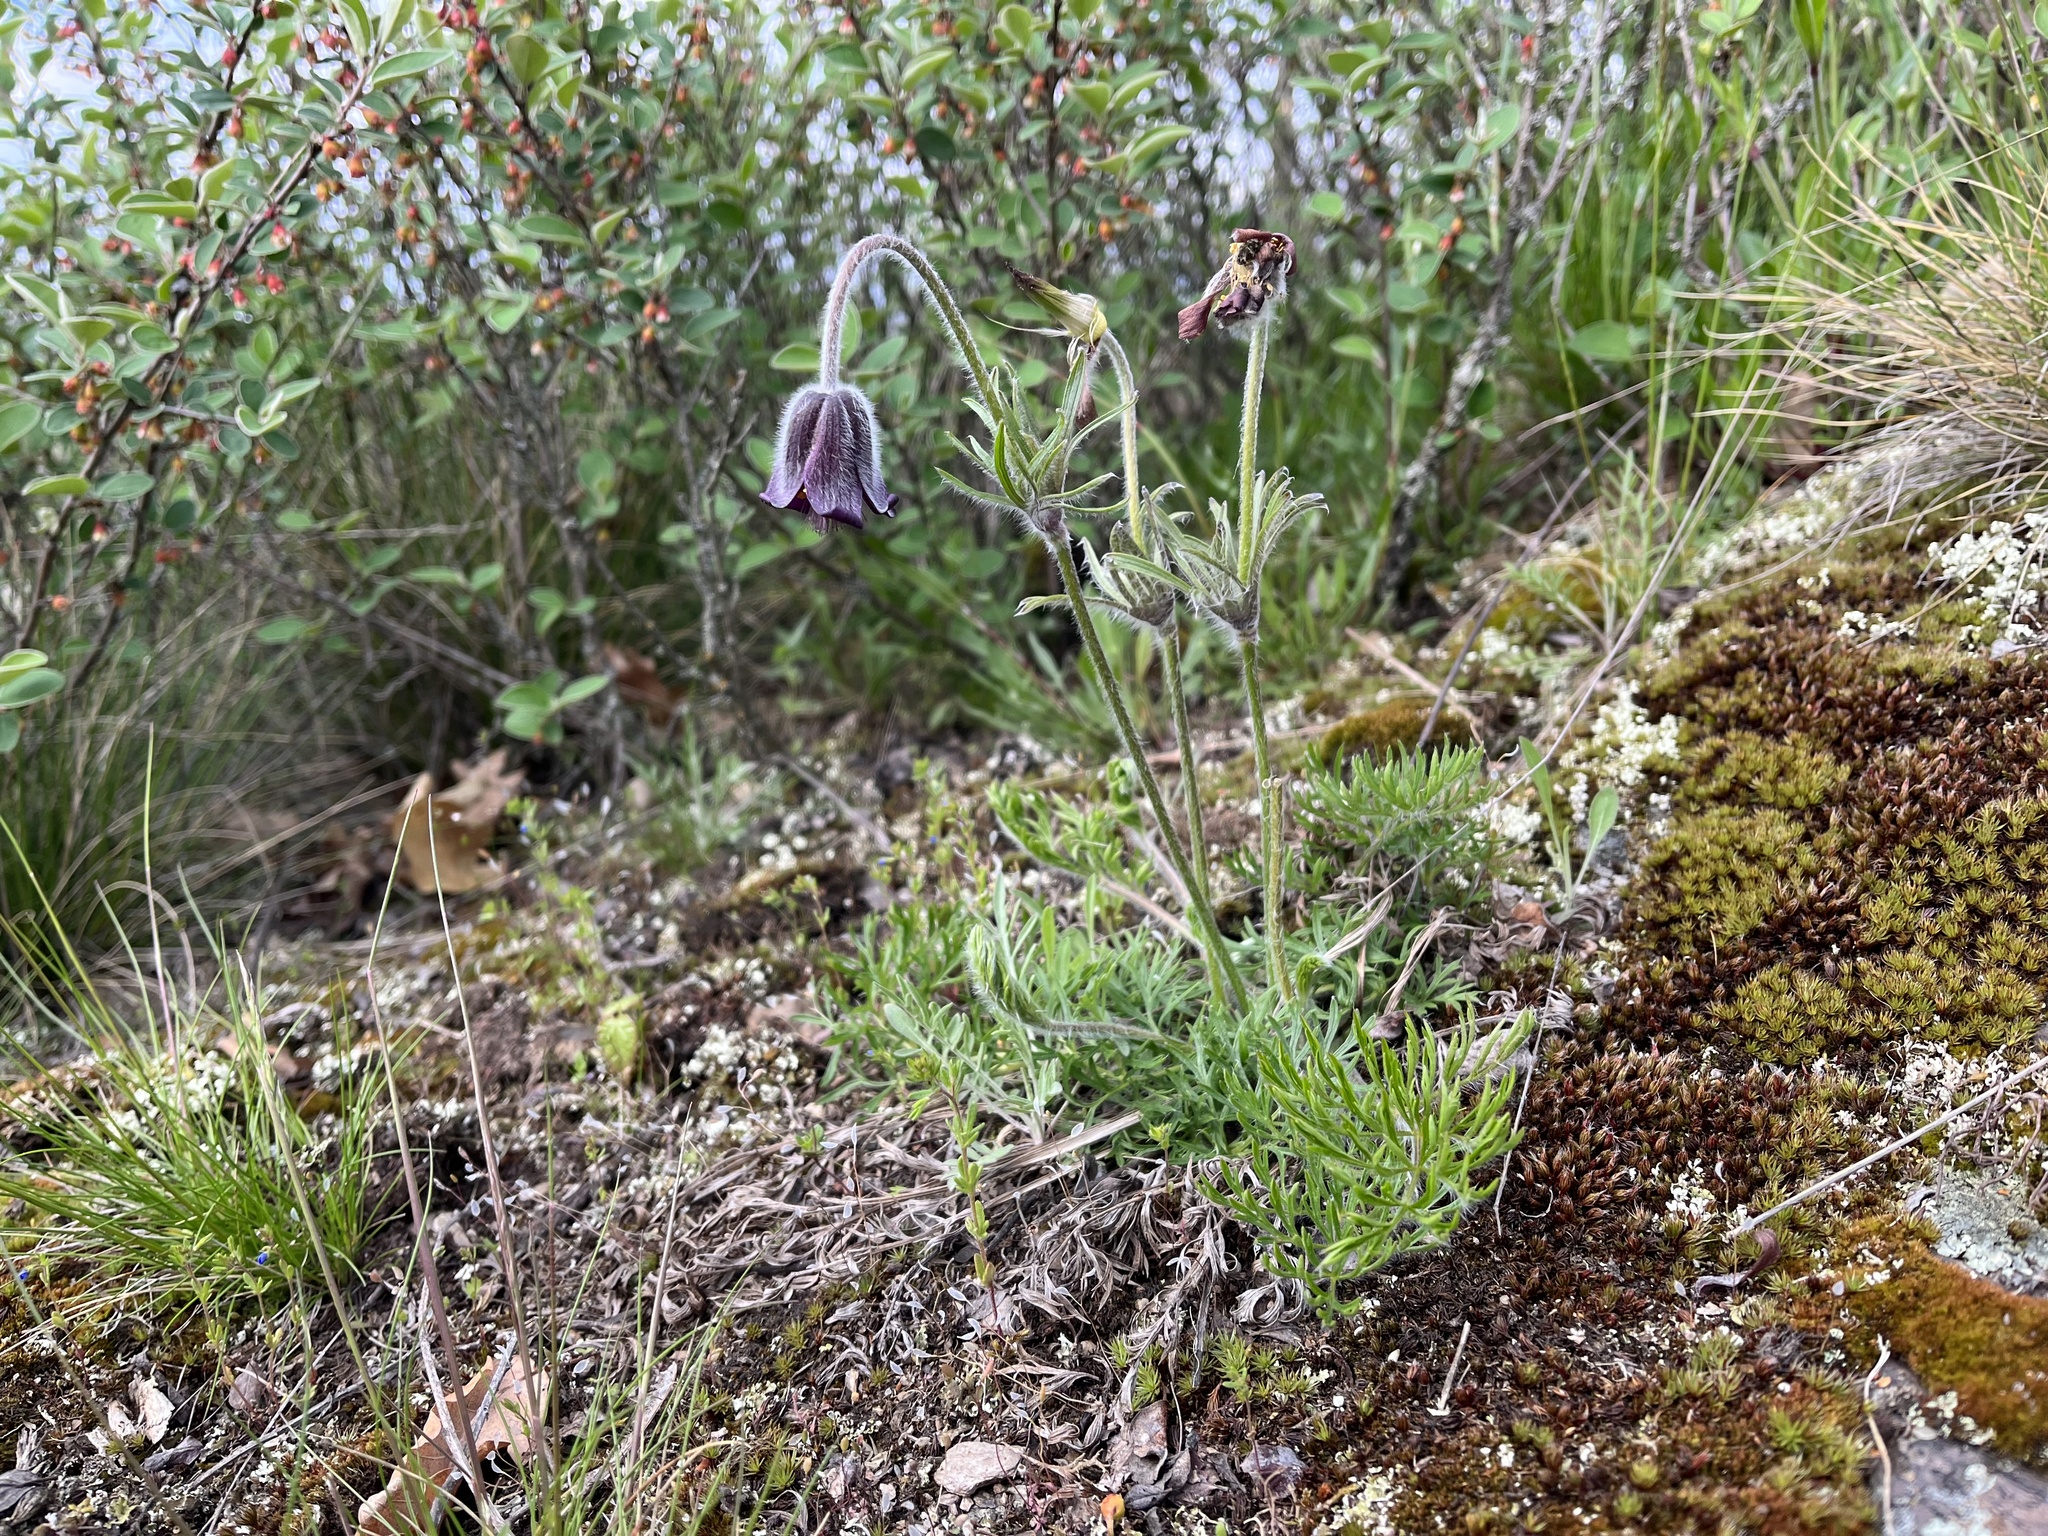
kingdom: Plantae
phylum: Tracheophyta
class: Magnoliopsida
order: Ranunculales
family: Ranunculaceae
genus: Pulsatilla
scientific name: Pulsatilla pratensis
